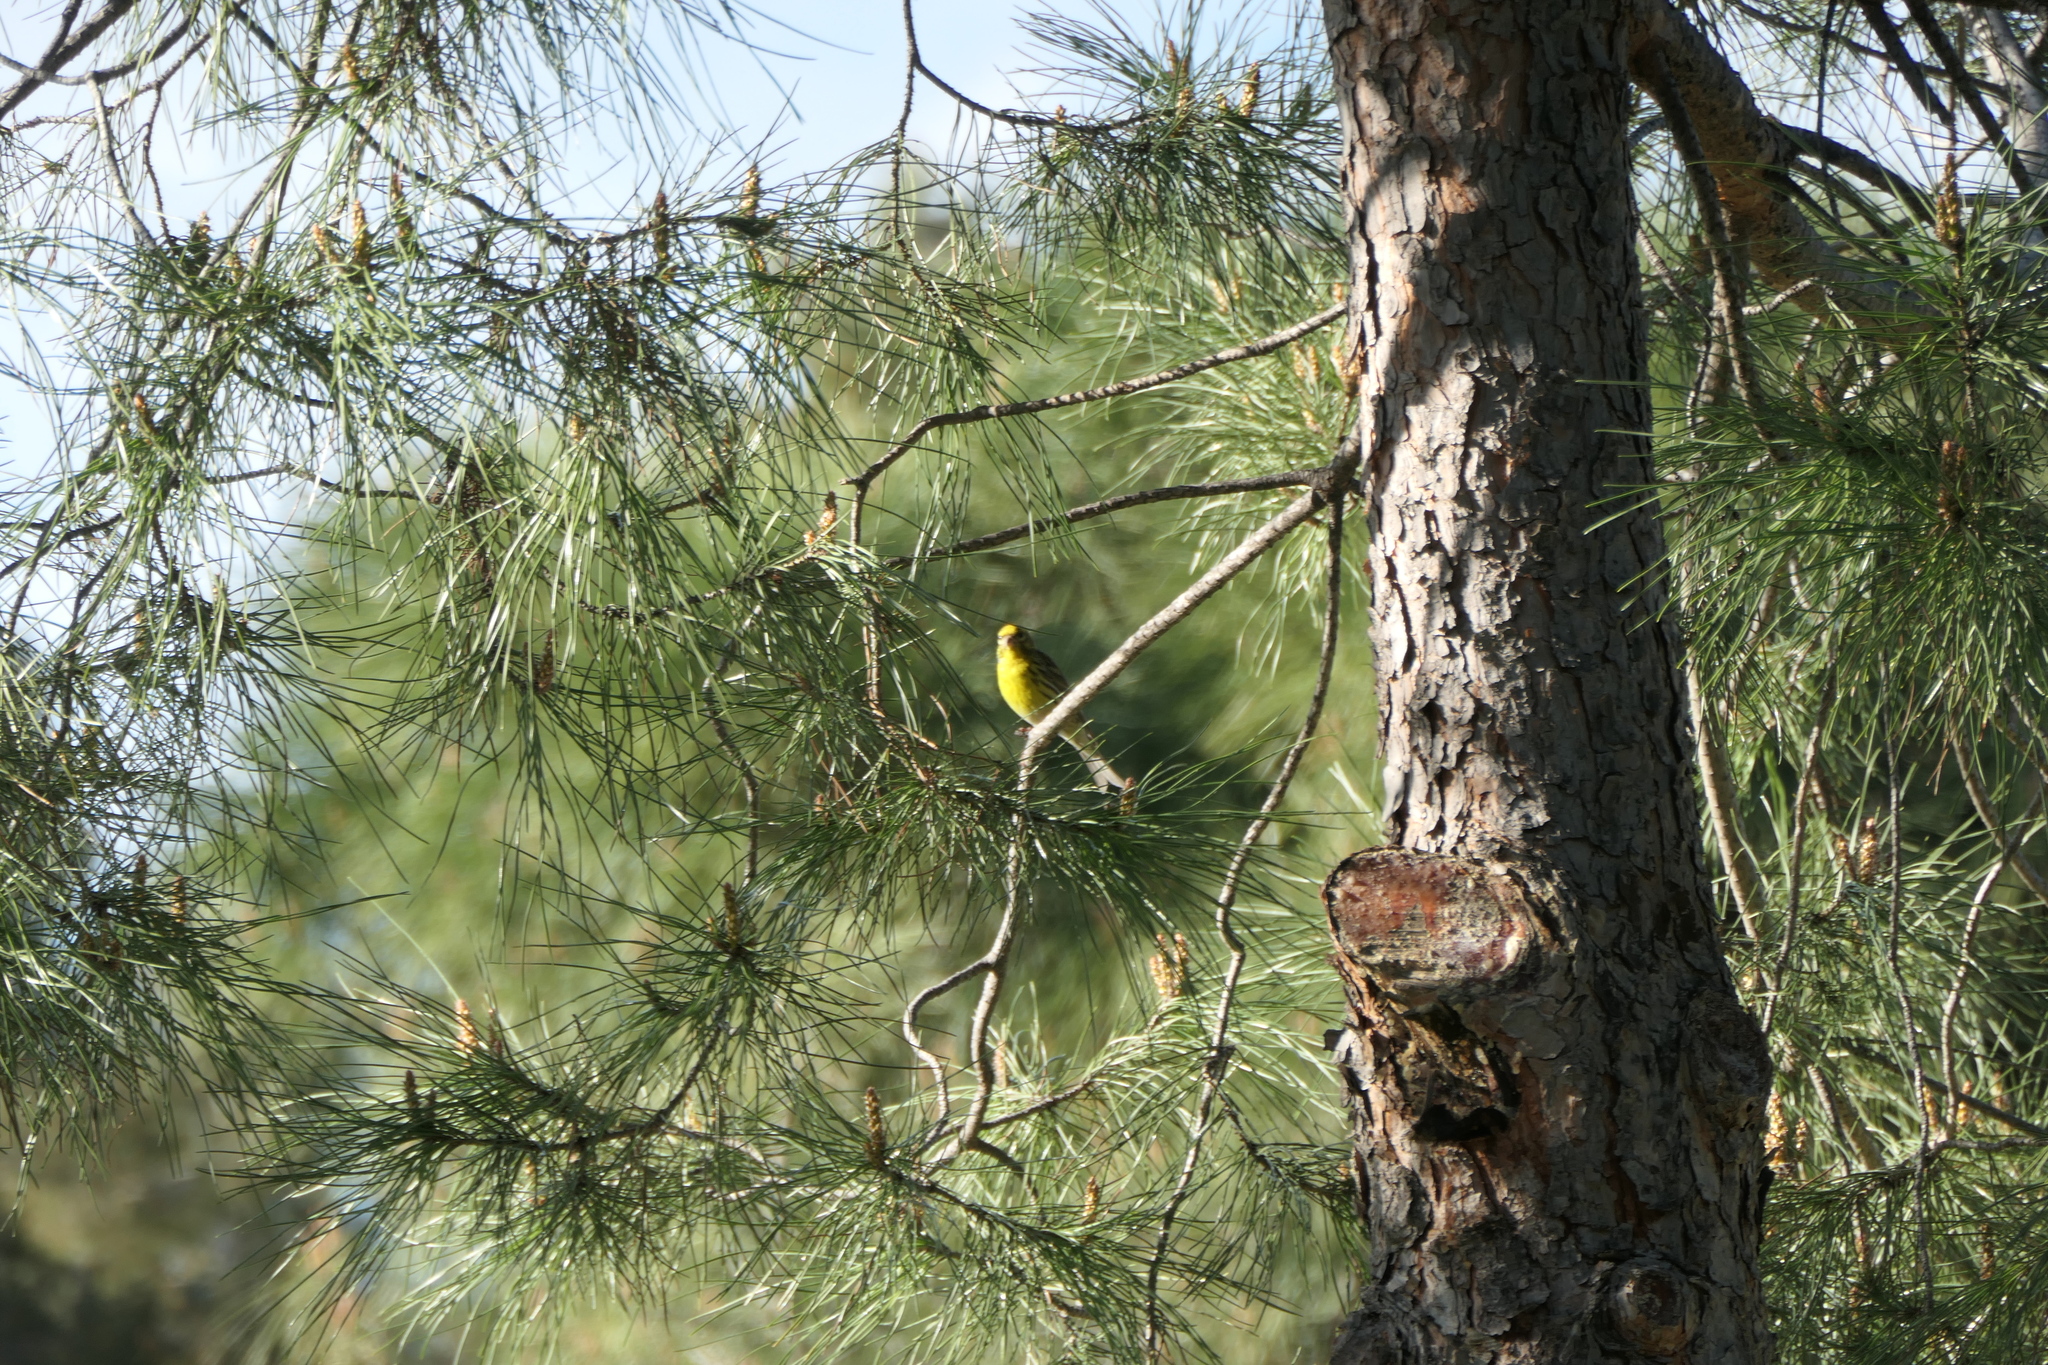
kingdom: Animalia
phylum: Chordata
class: Aves
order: Passeriformes
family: Fringillidae
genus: Serinus
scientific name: Serinus serinus
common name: European serin
